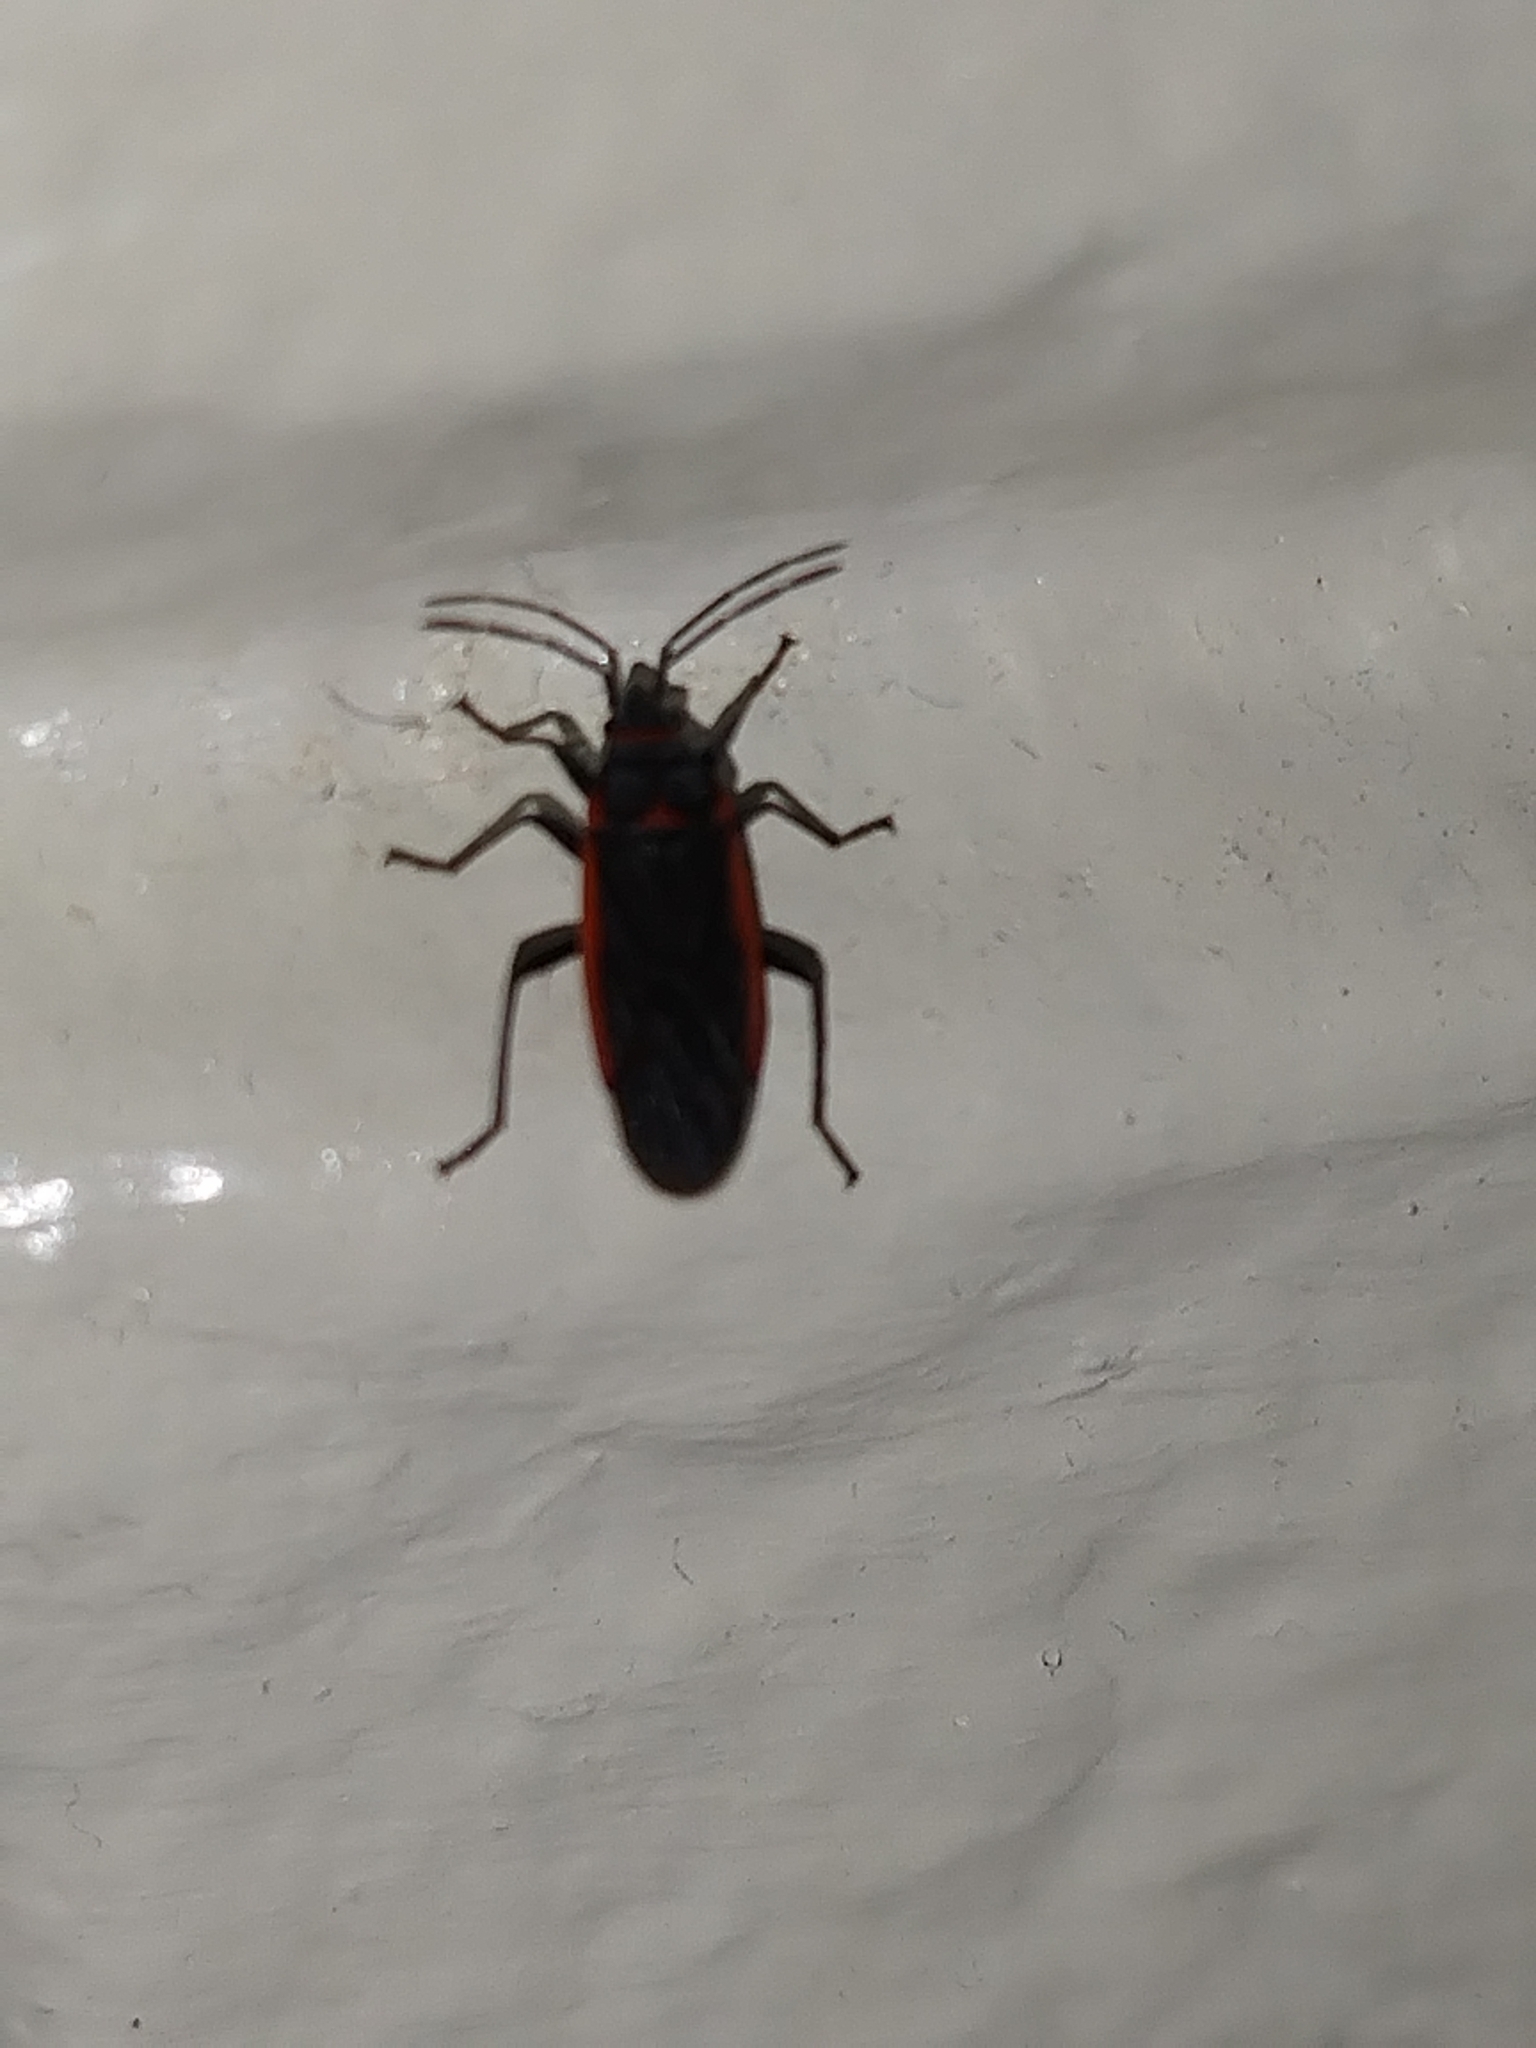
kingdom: Animalia
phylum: Arthropoda
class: Insecta
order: Hemiptera
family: Lygaeidae
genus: Melacoryphus
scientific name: Melacoryphus lateralis
